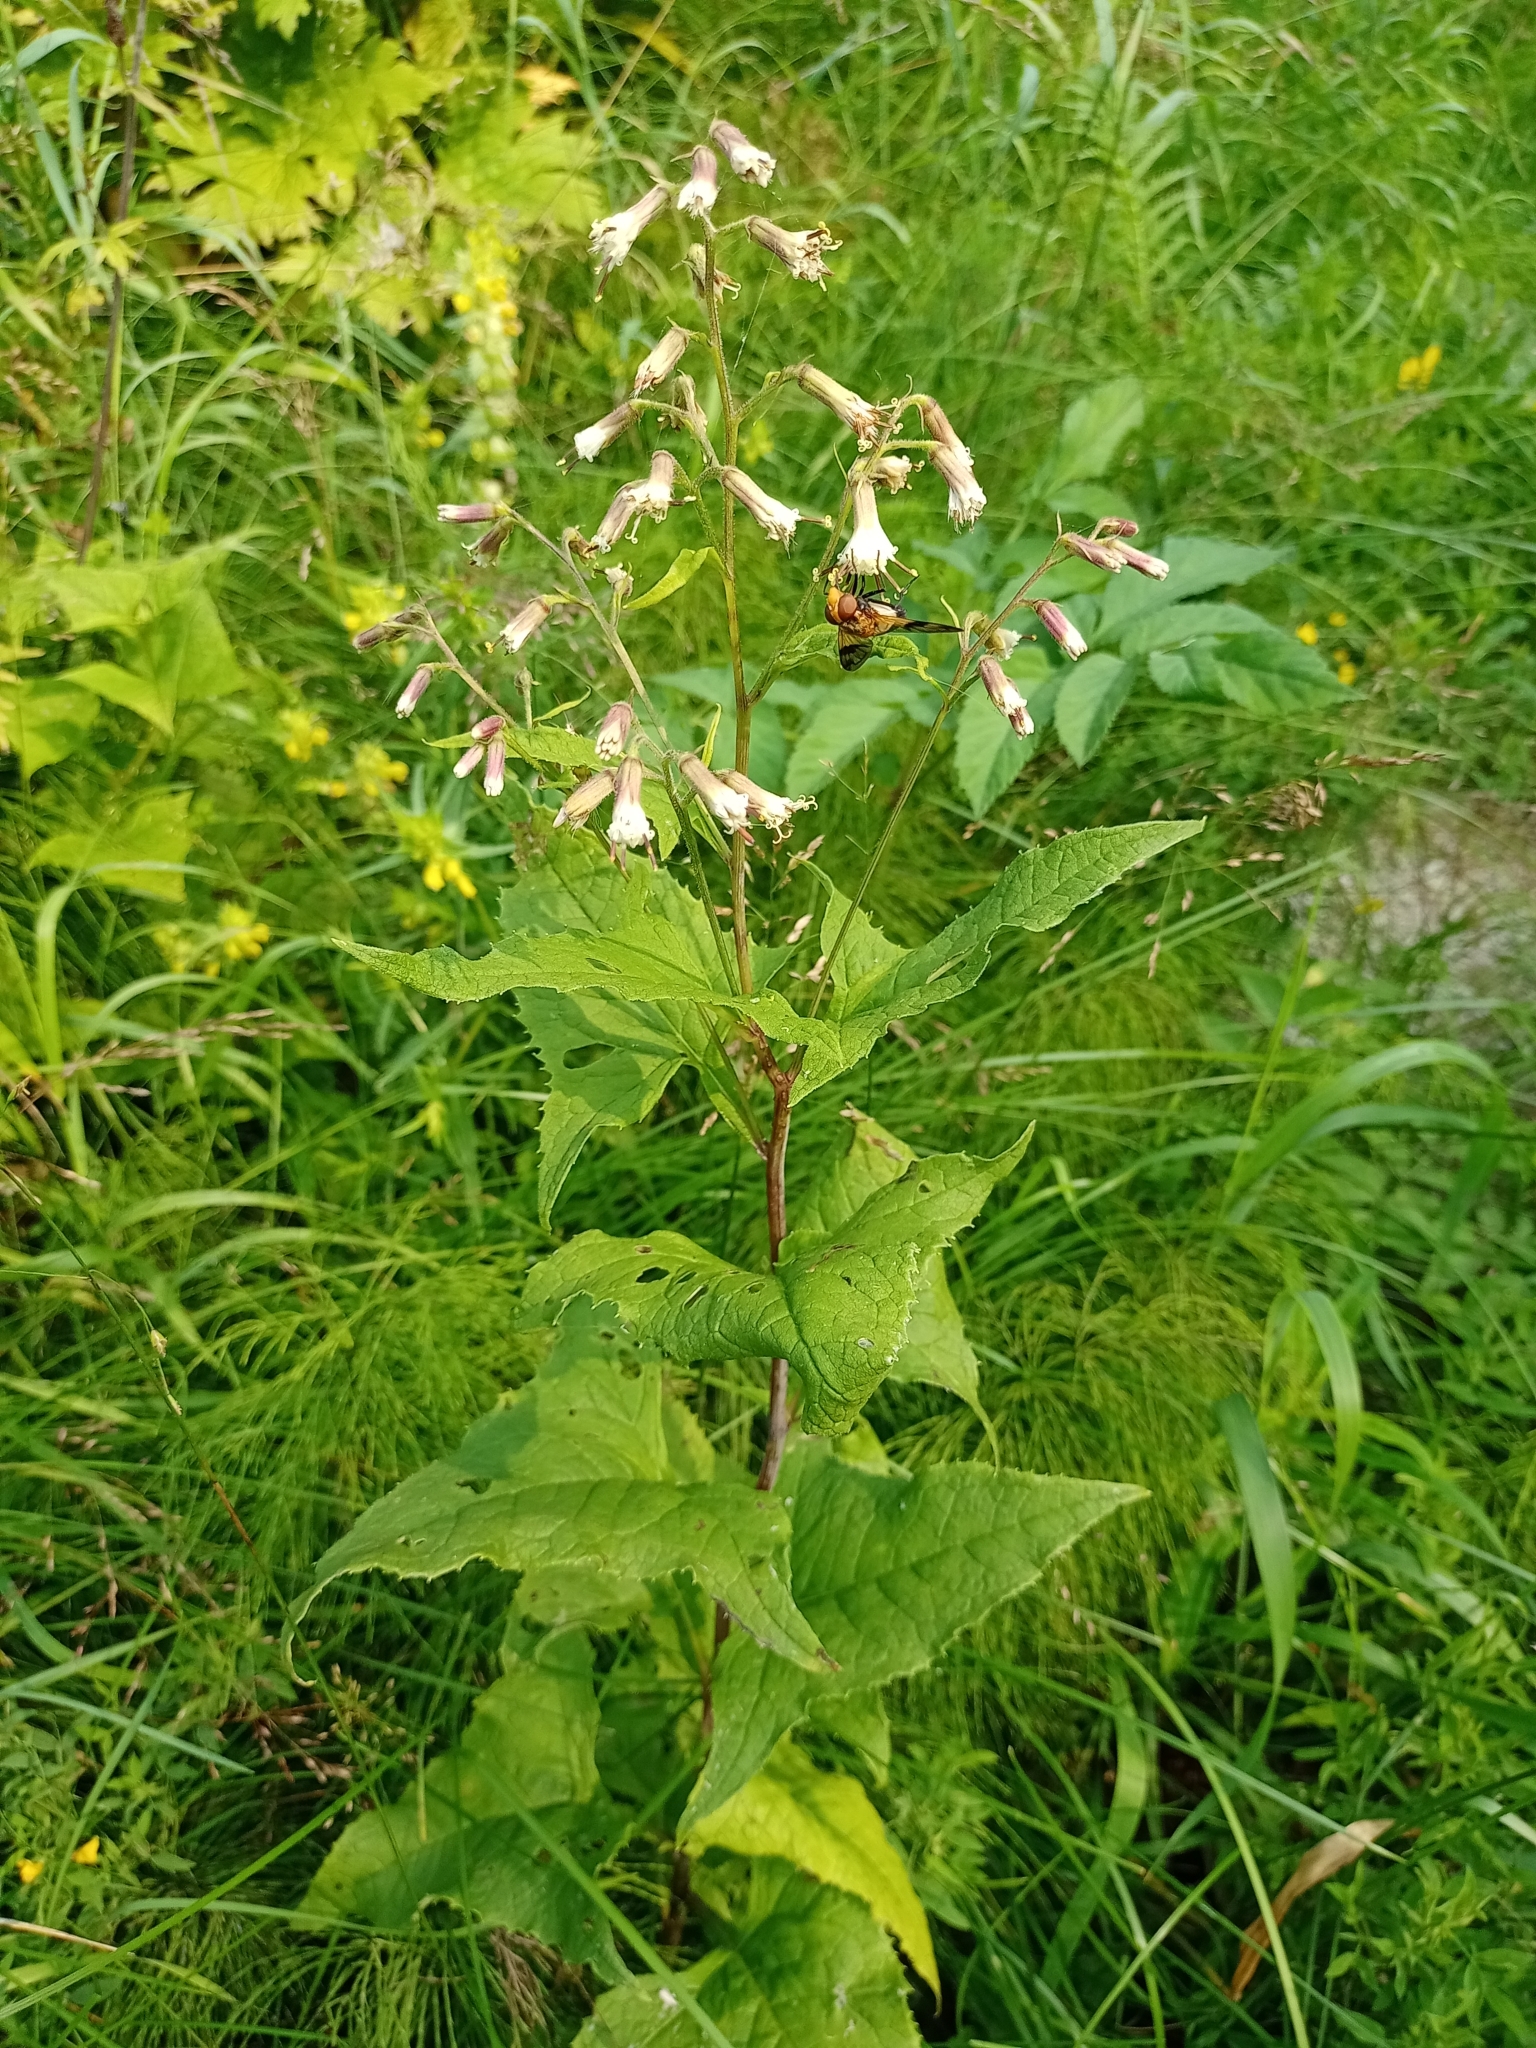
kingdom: Plantae
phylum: Tracheophyta
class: Magnoliopsida
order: Asterales
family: Asteraceae
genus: Parasenecio
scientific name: Parasenecio hastatus
